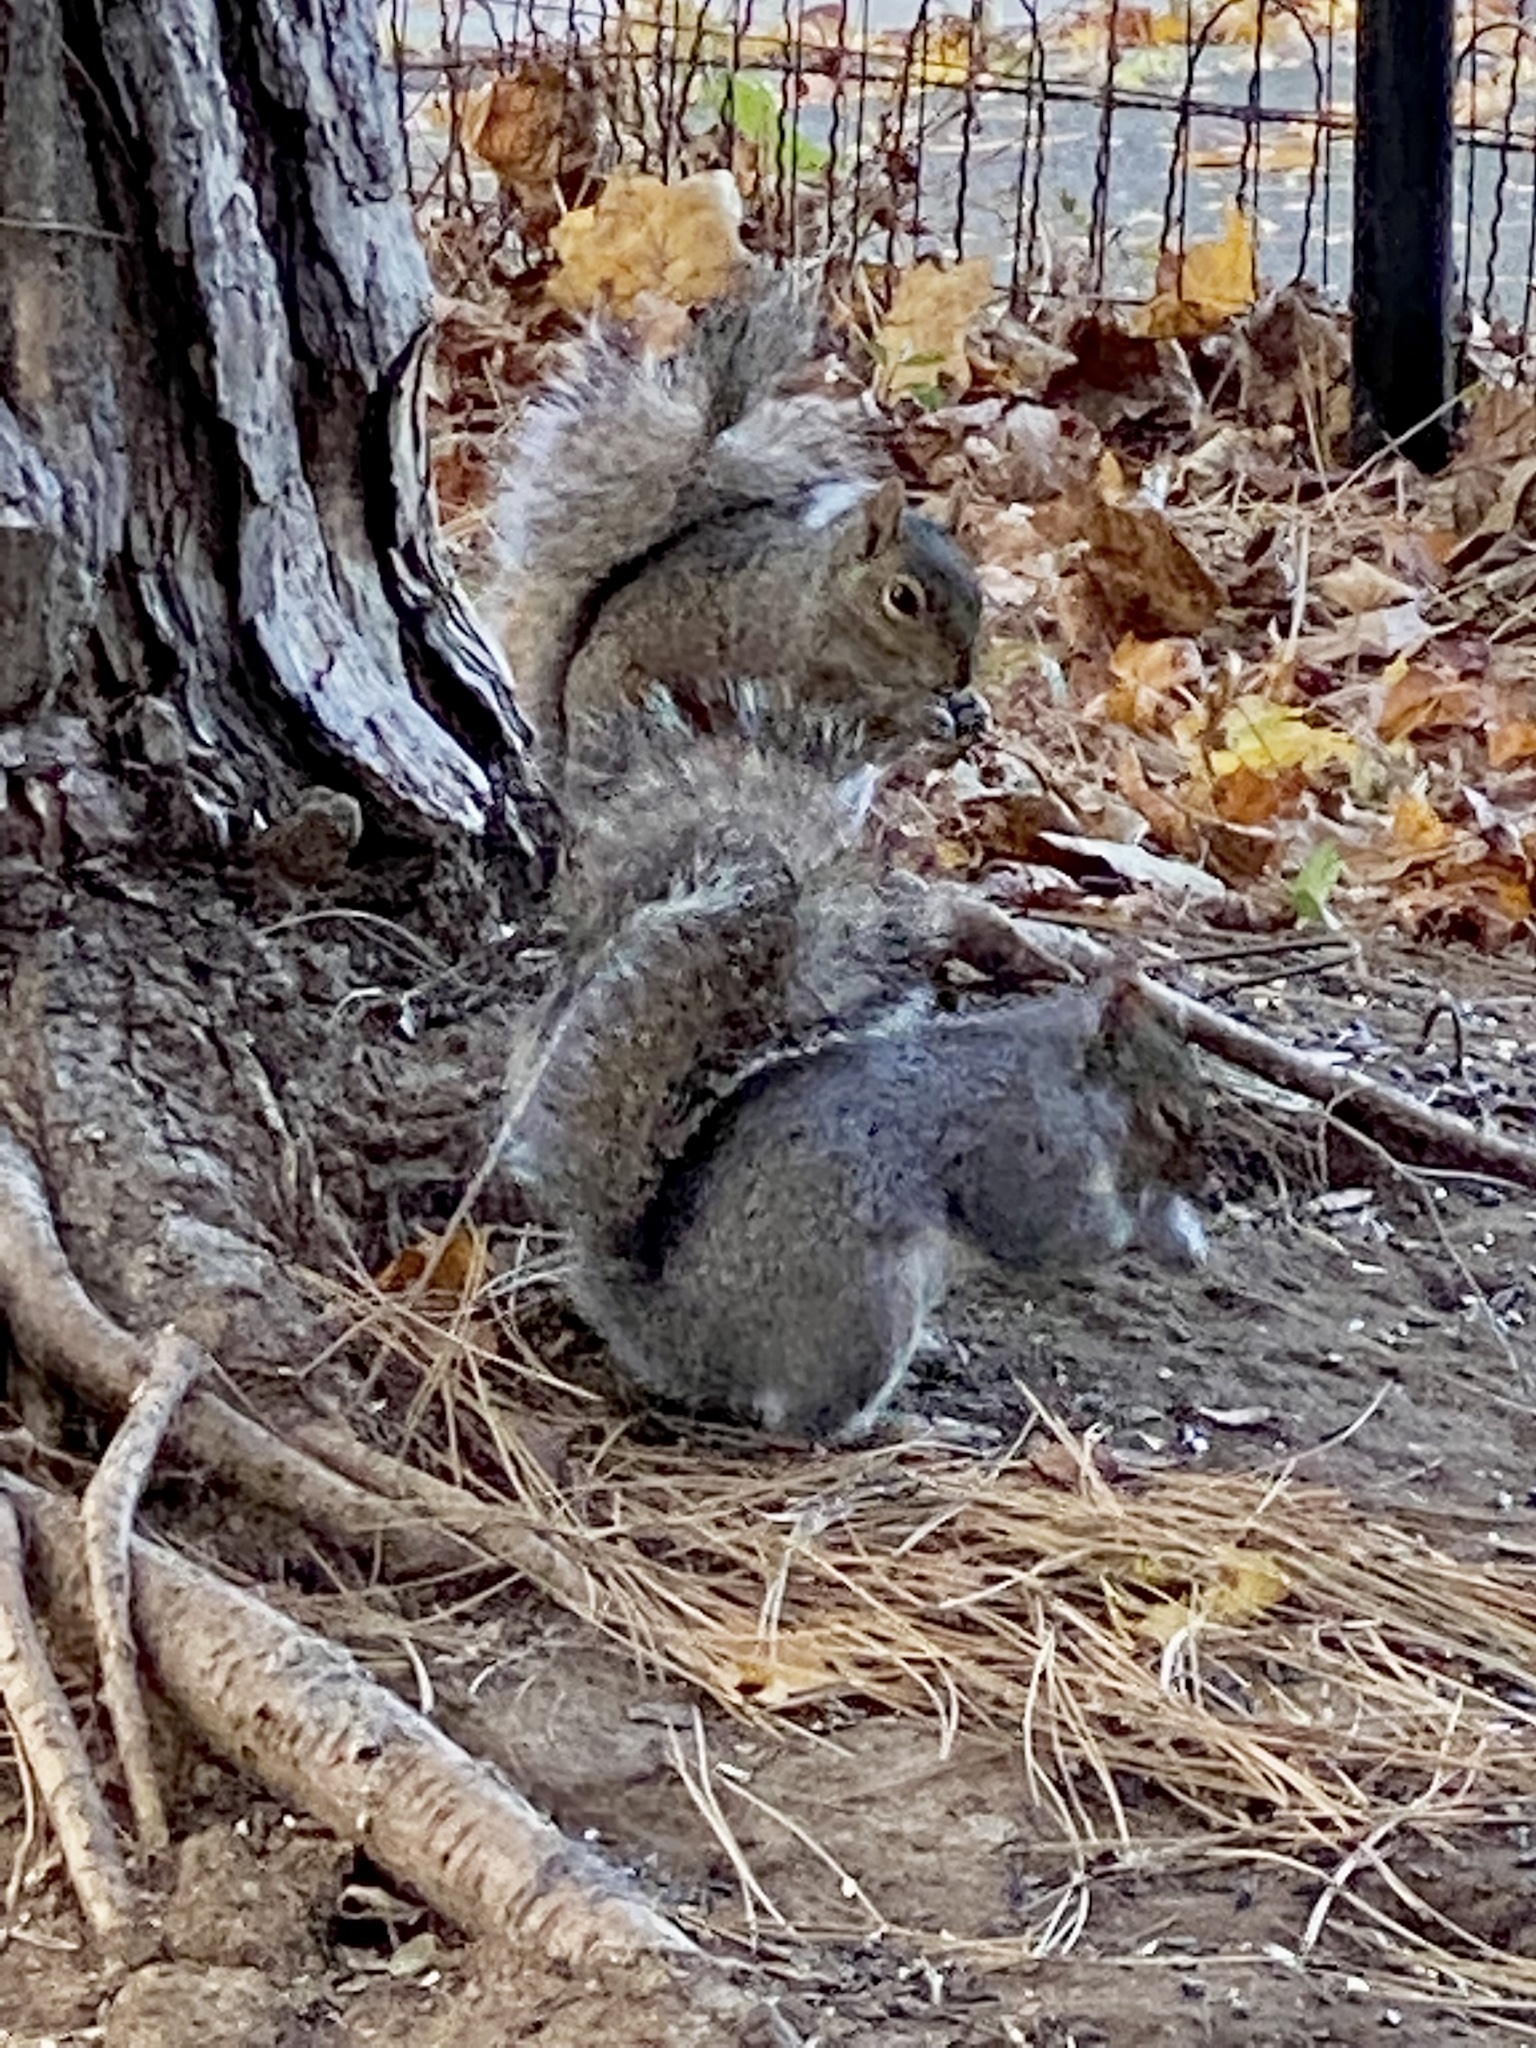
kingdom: Animalia
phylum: Chordata
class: Mammalia
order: Rodentia
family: Sciuridae
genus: Sciurus
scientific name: Sciurus carolinensis
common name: Eastern gray squirrel
